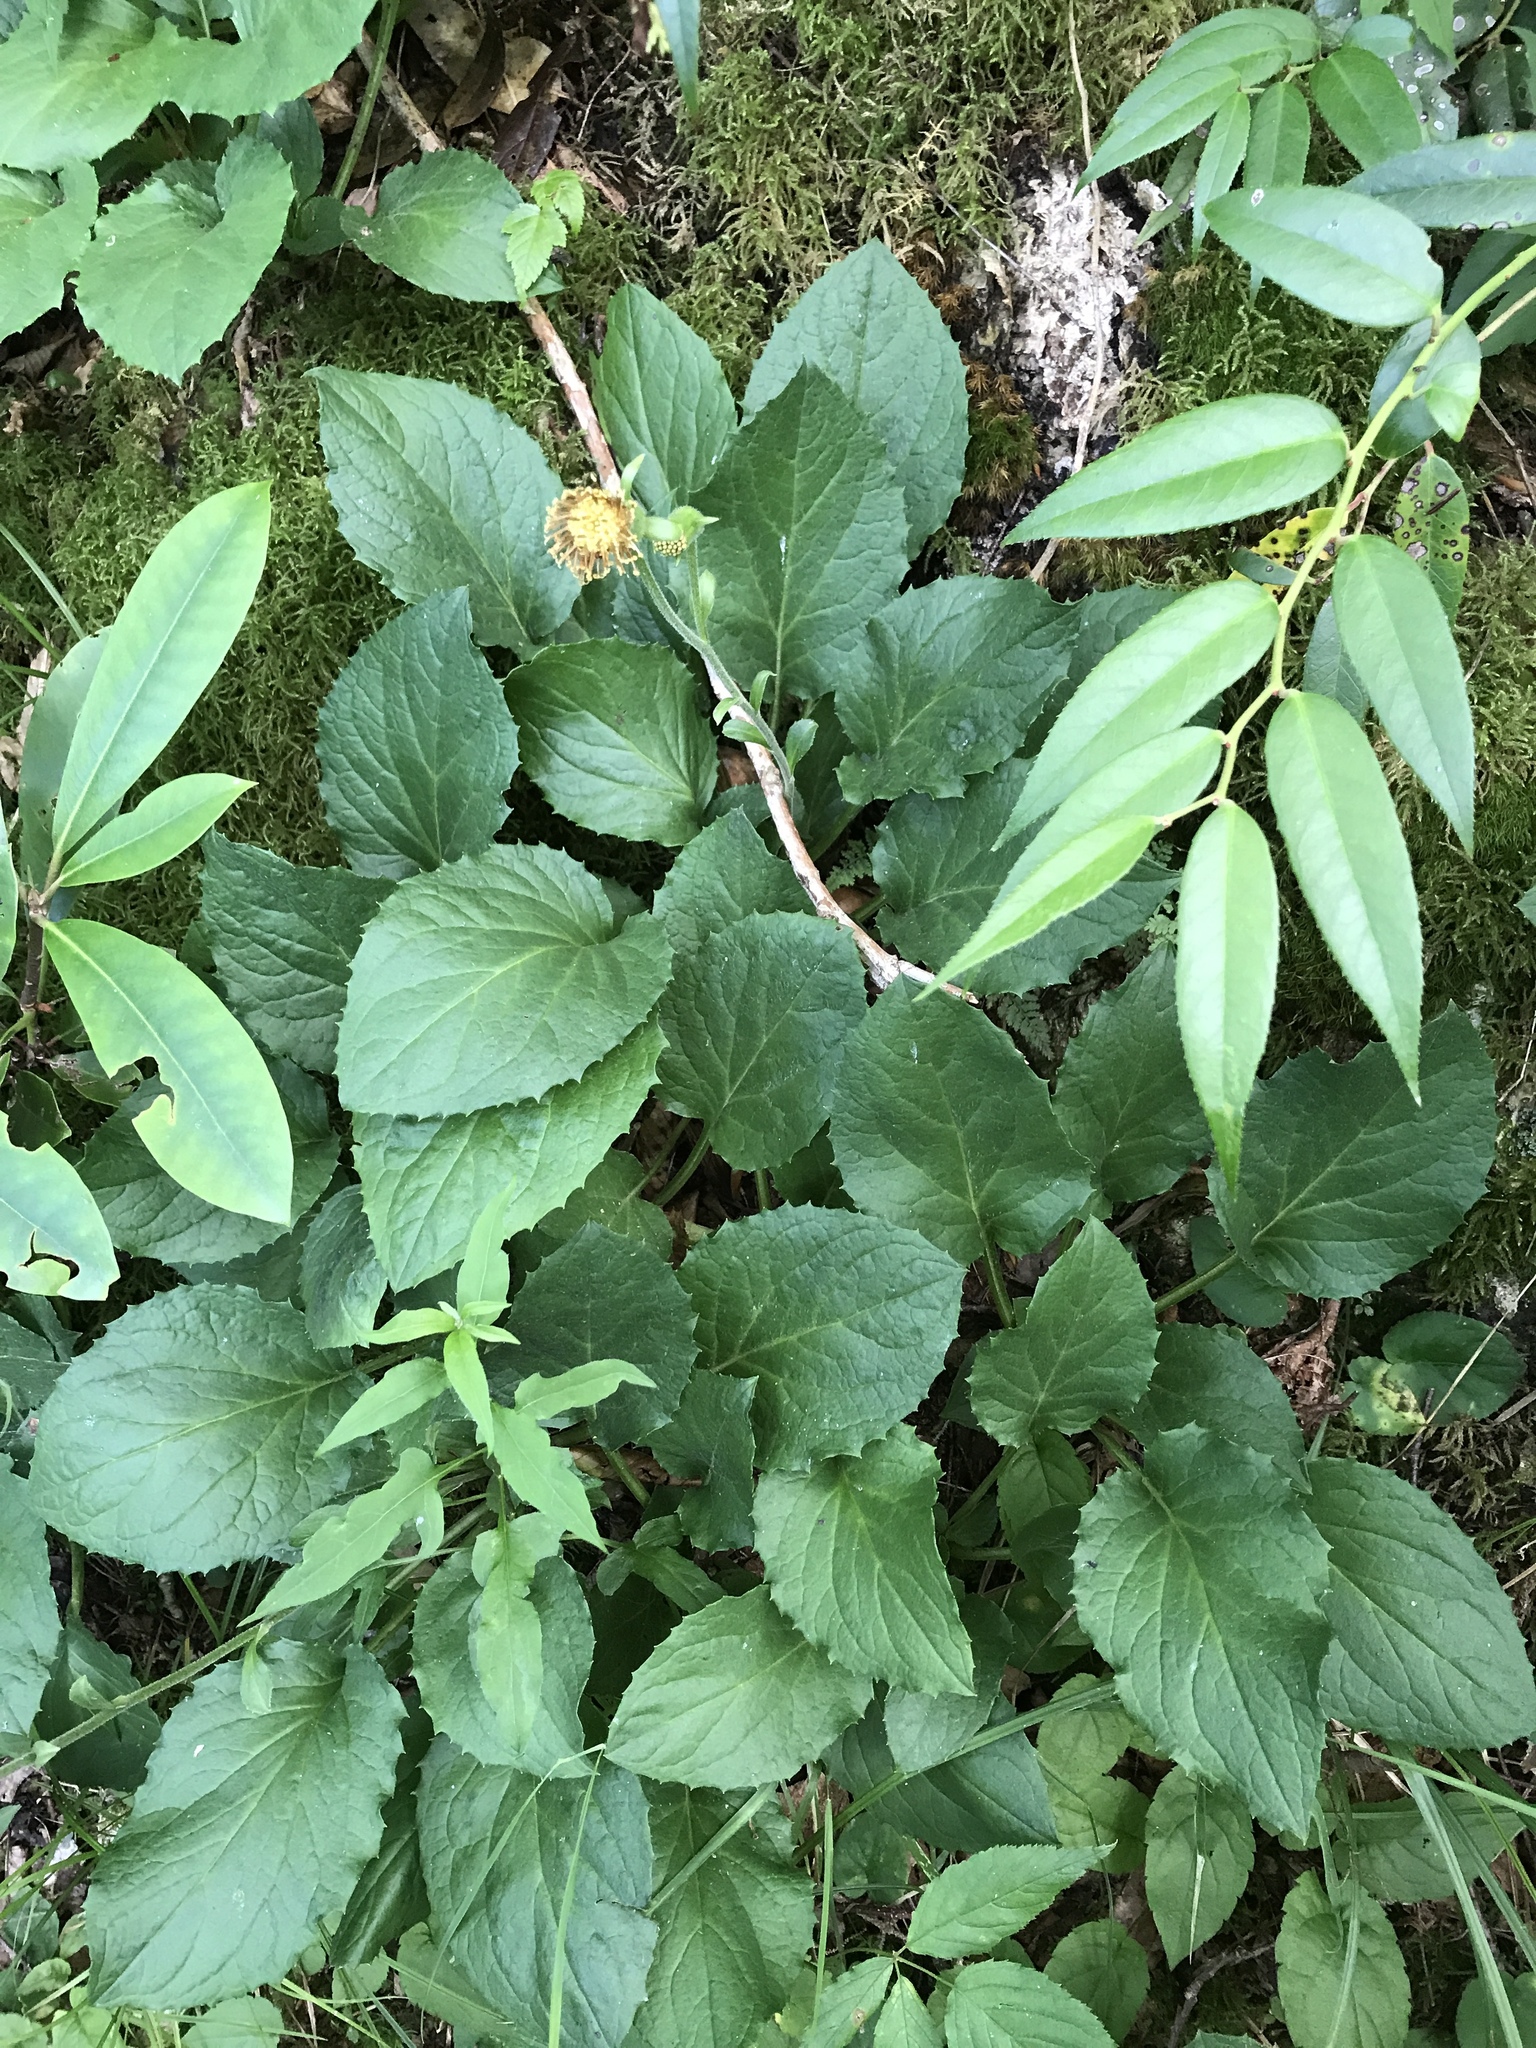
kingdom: Plantae
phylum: Tracheophyta
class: Magnoliopsida
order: Asterales
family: Asteraceae
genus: Rugelia
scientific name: Rugelia nudicaulis
